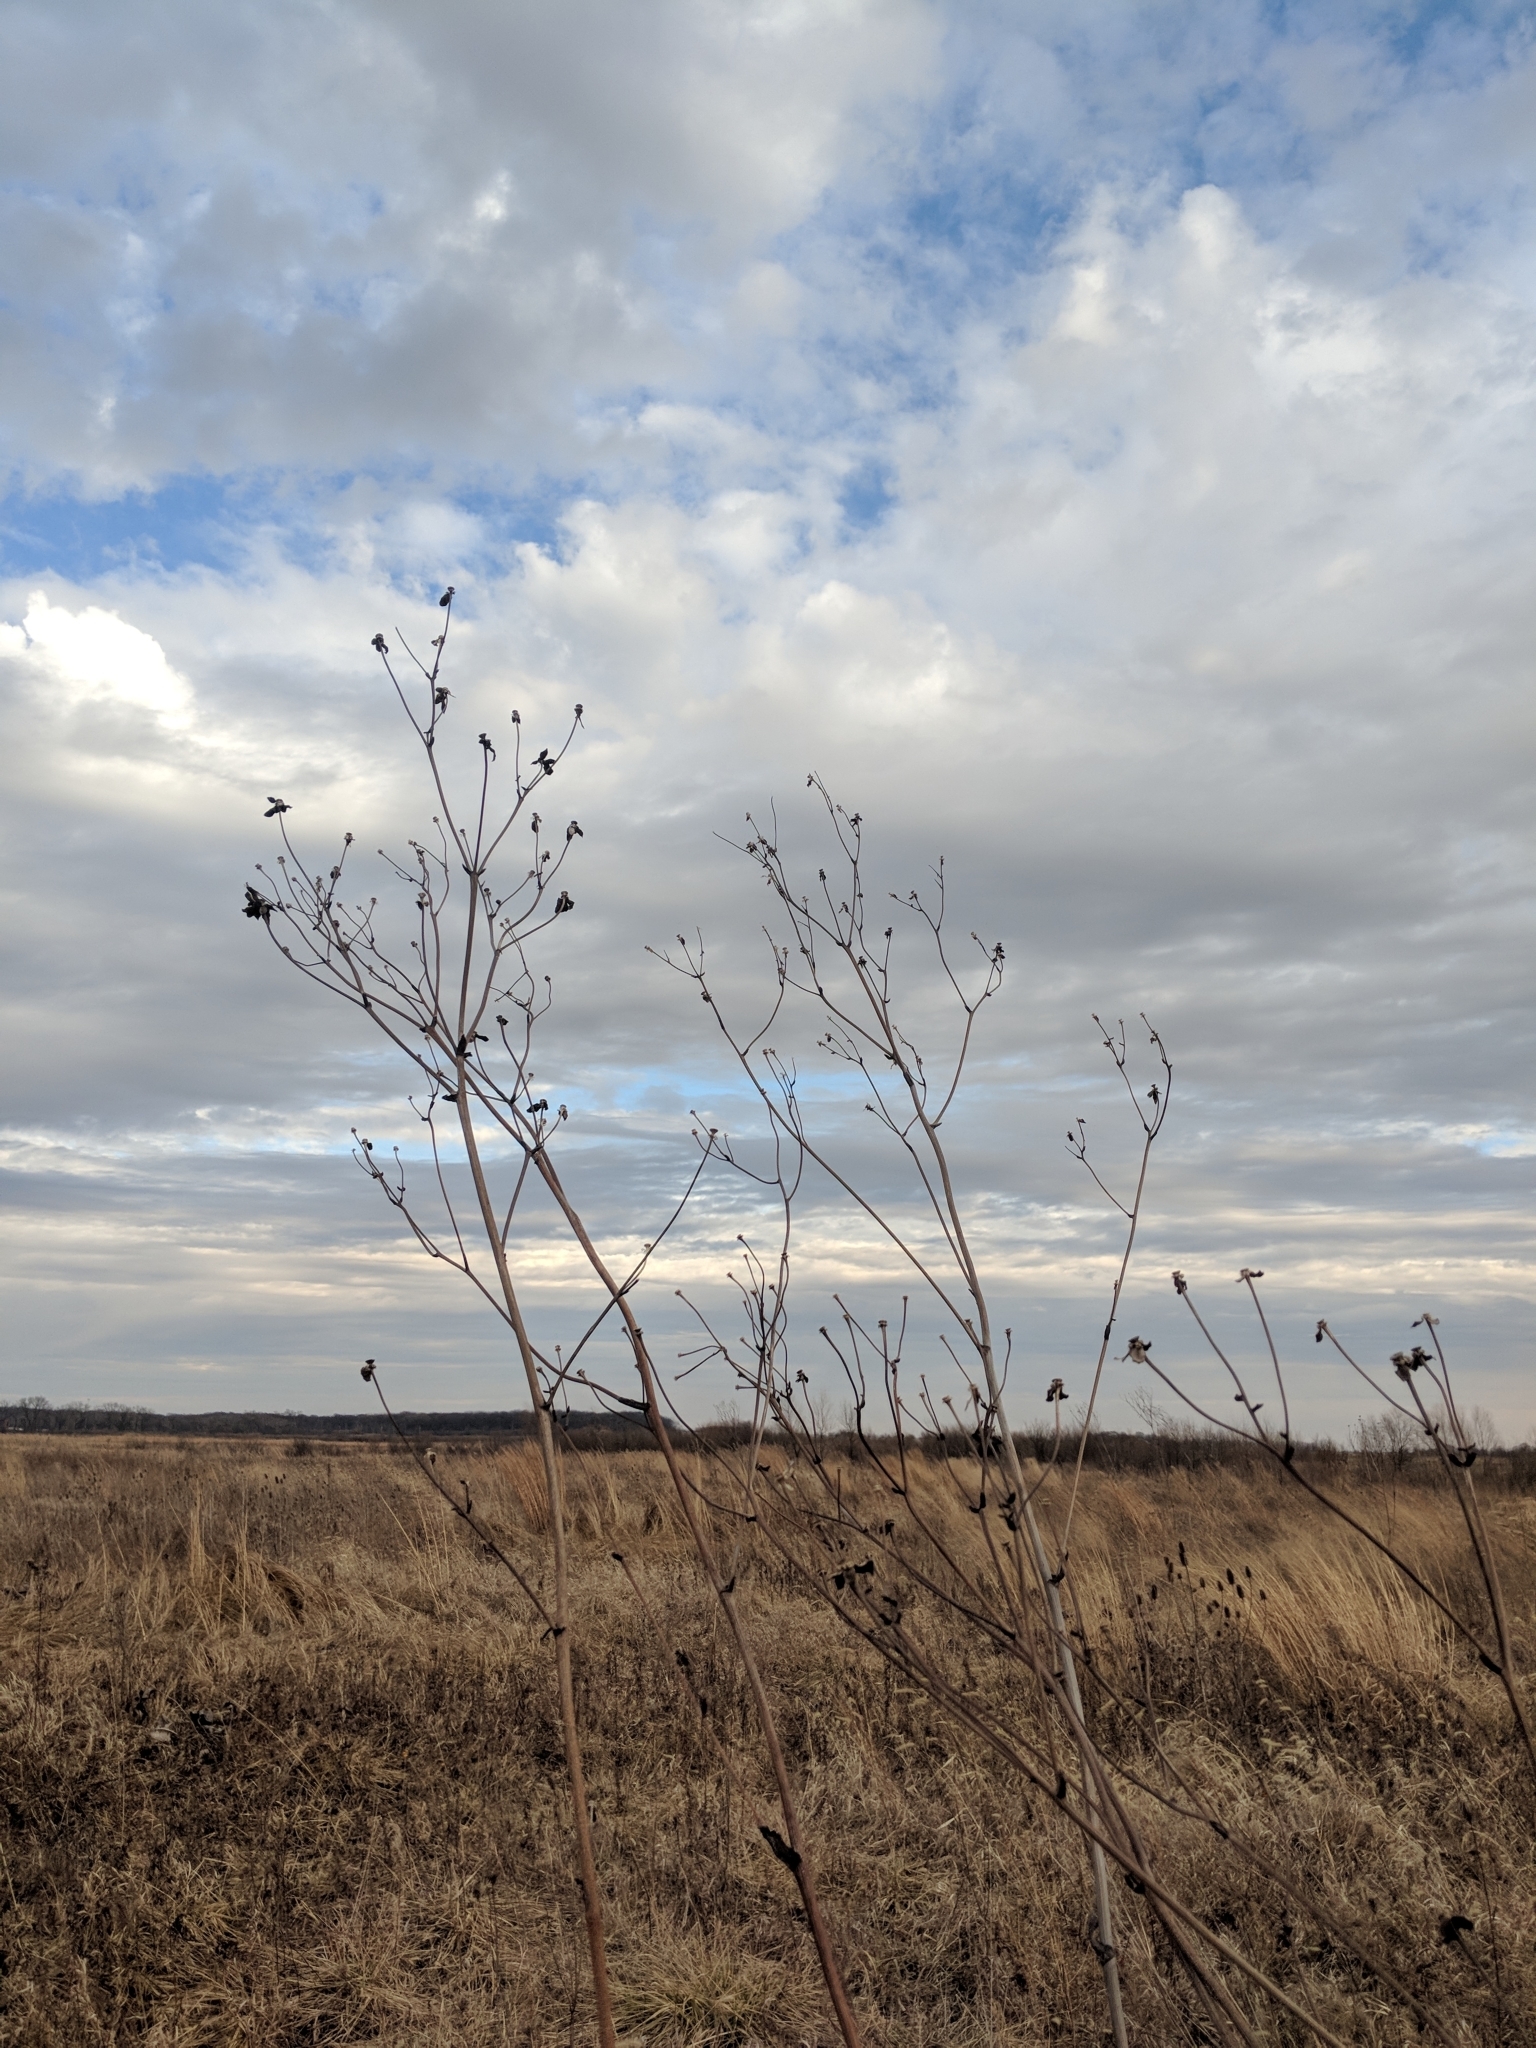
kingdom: Plantae
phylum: Tracheophyta
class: Magnoliopsida
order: Asterales
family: Asteraceae
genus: Silphium
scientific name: Silphium terebinthinaceum
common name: Basal-leaf rosinweed
